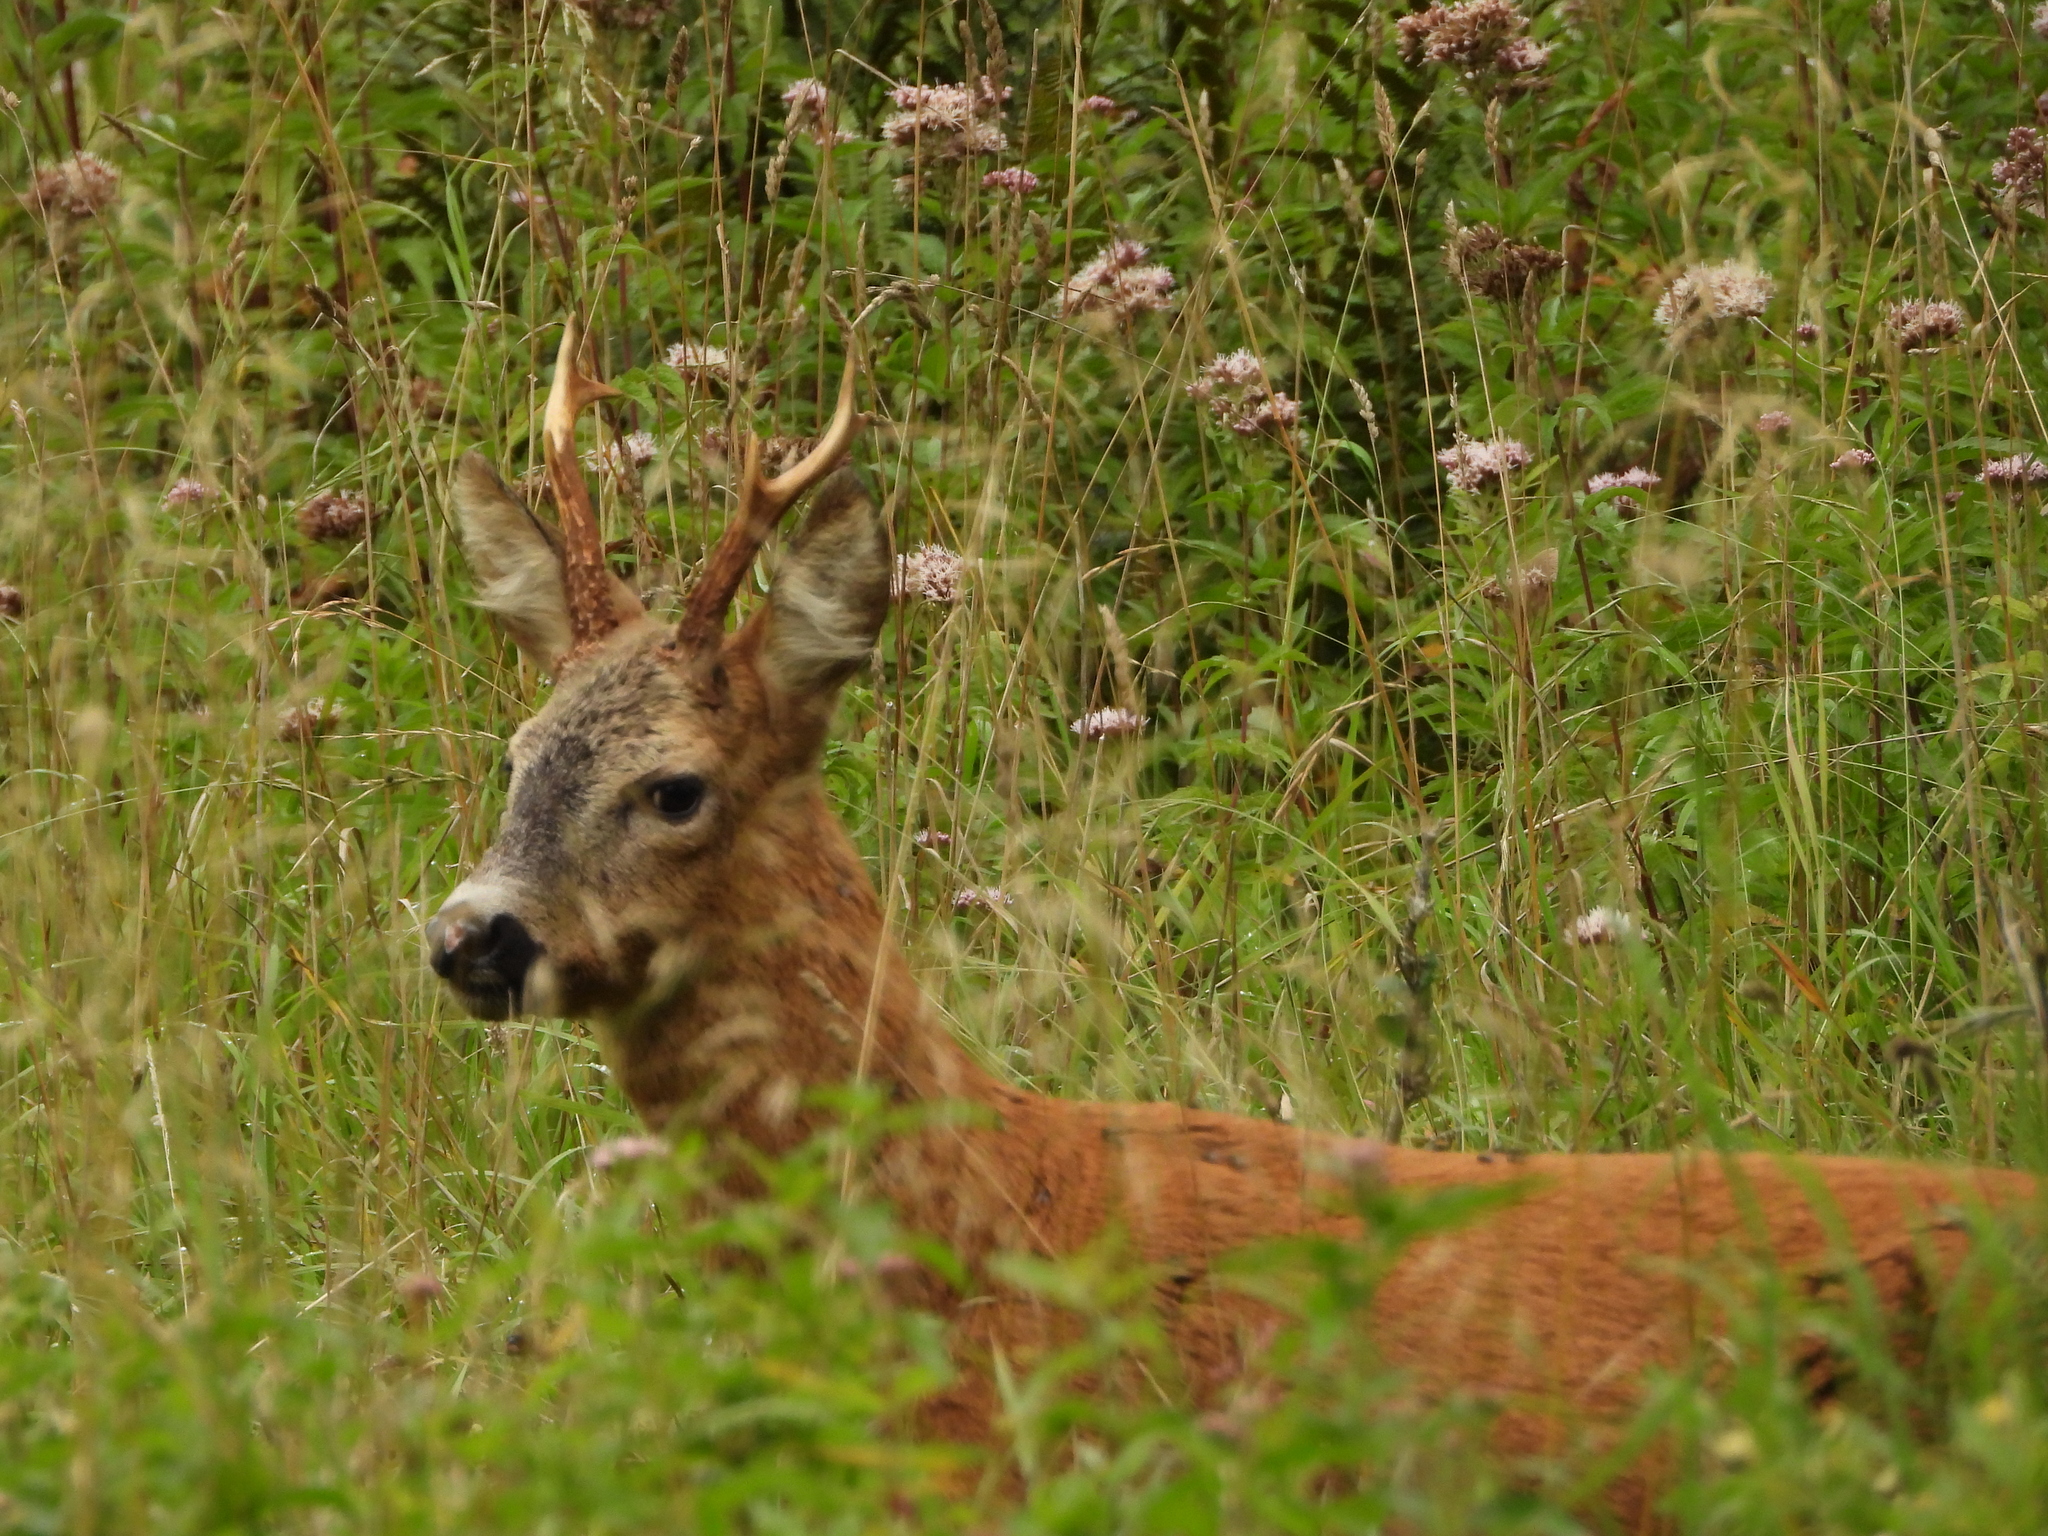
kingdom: Animalia
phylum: Chordata
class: Mammalia
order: Artiodactyla
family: Cervidae
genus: Capreolus
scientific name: Capreolus capreolus
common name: Western roe deer
